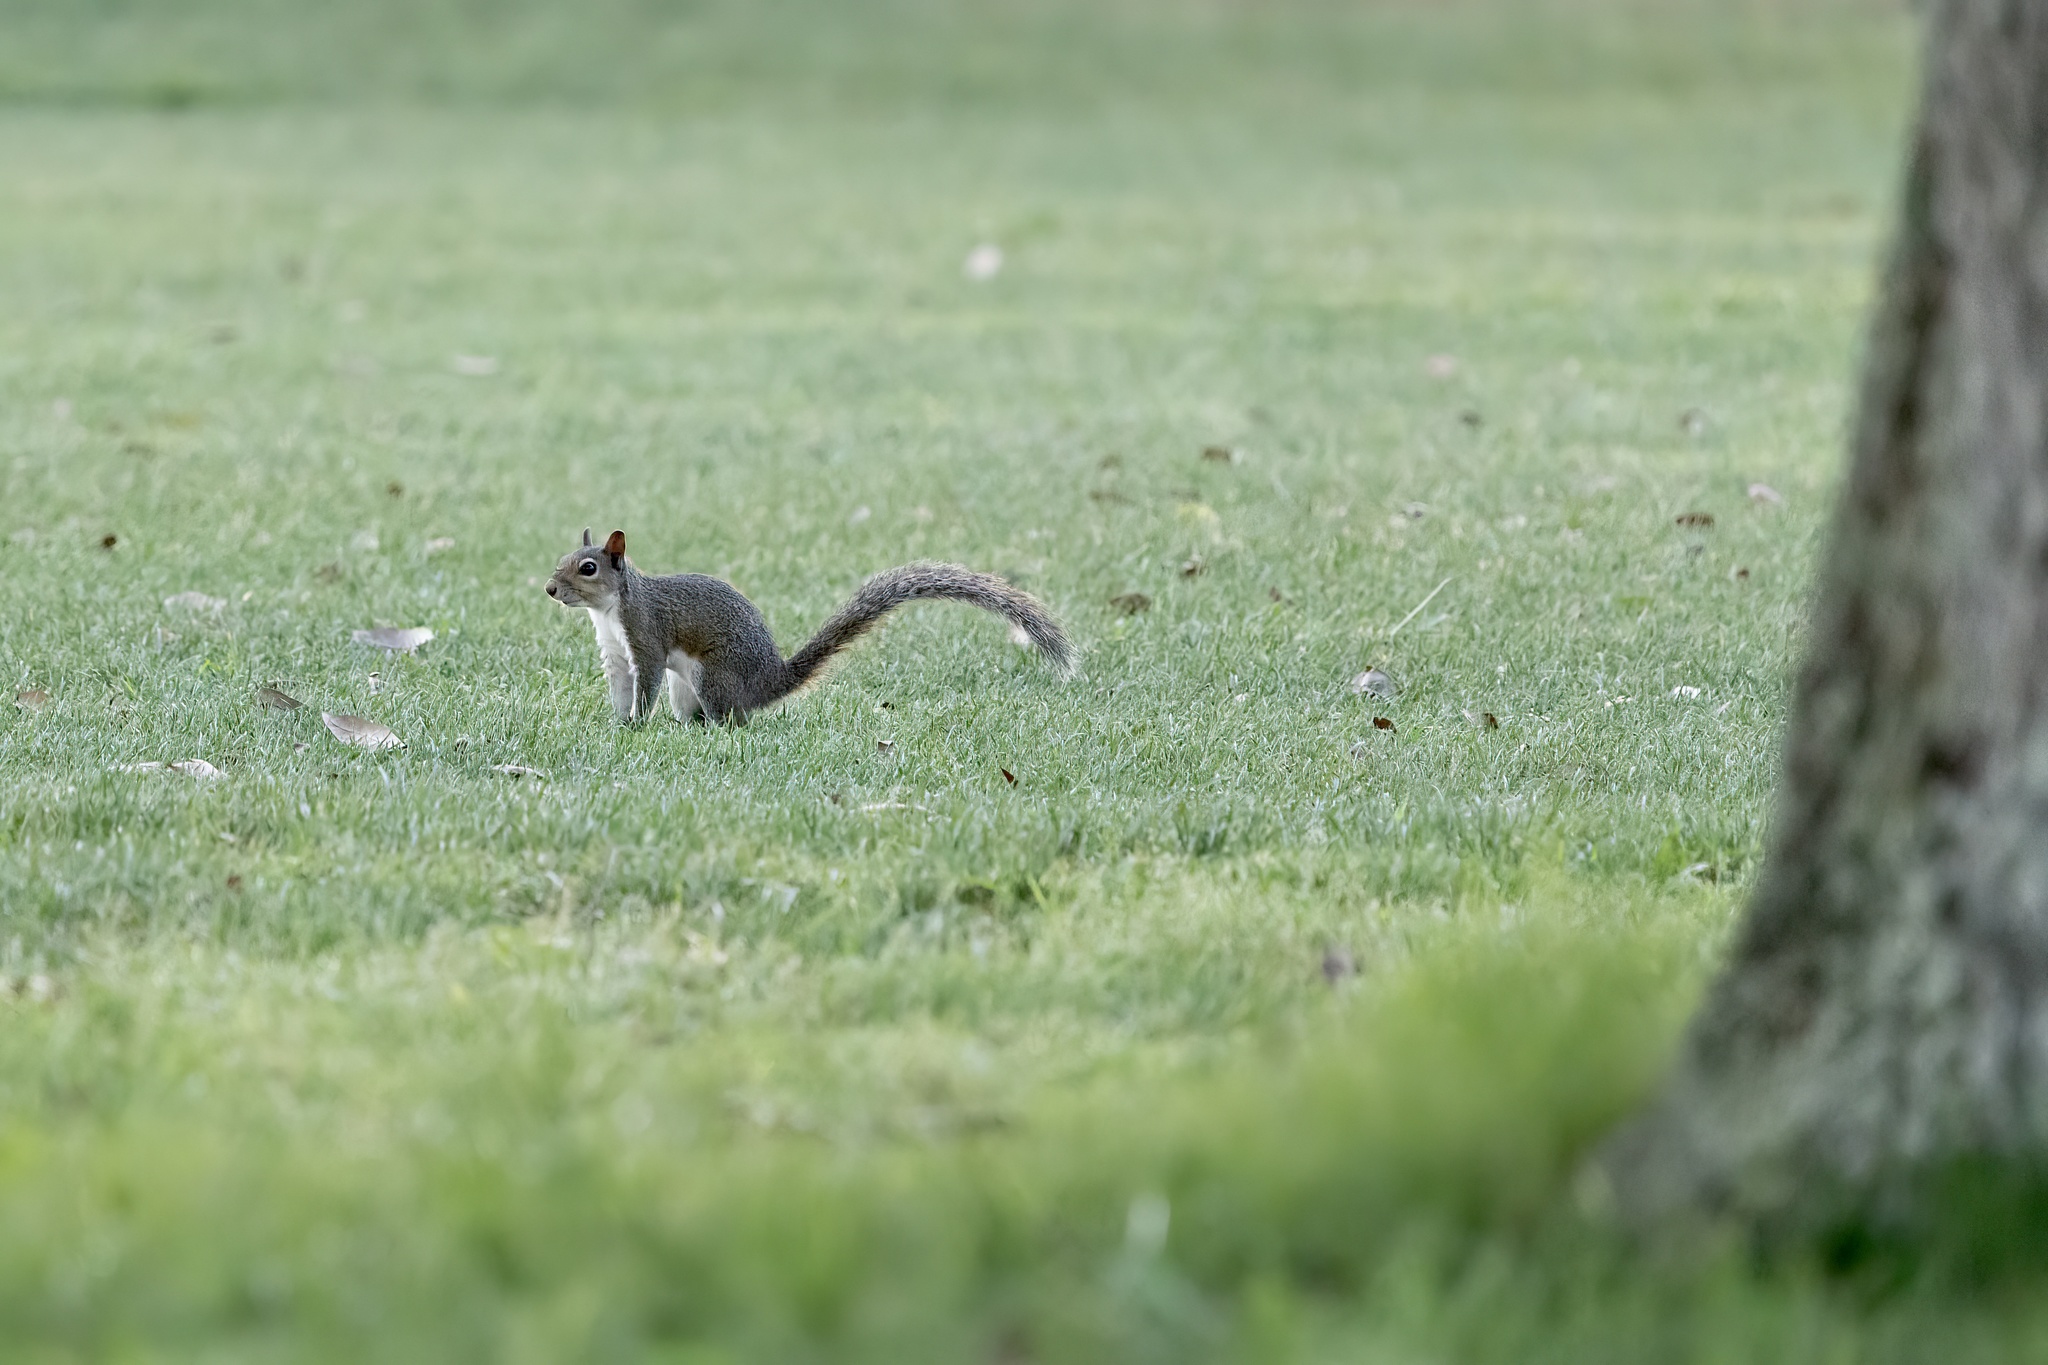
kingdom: Animalia
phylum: Chordata
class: Mammalia
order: Rodentia
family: Sciuridae
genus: Sciurus
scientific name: Sciurus carolinensis
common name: Eastern gray squirrel
